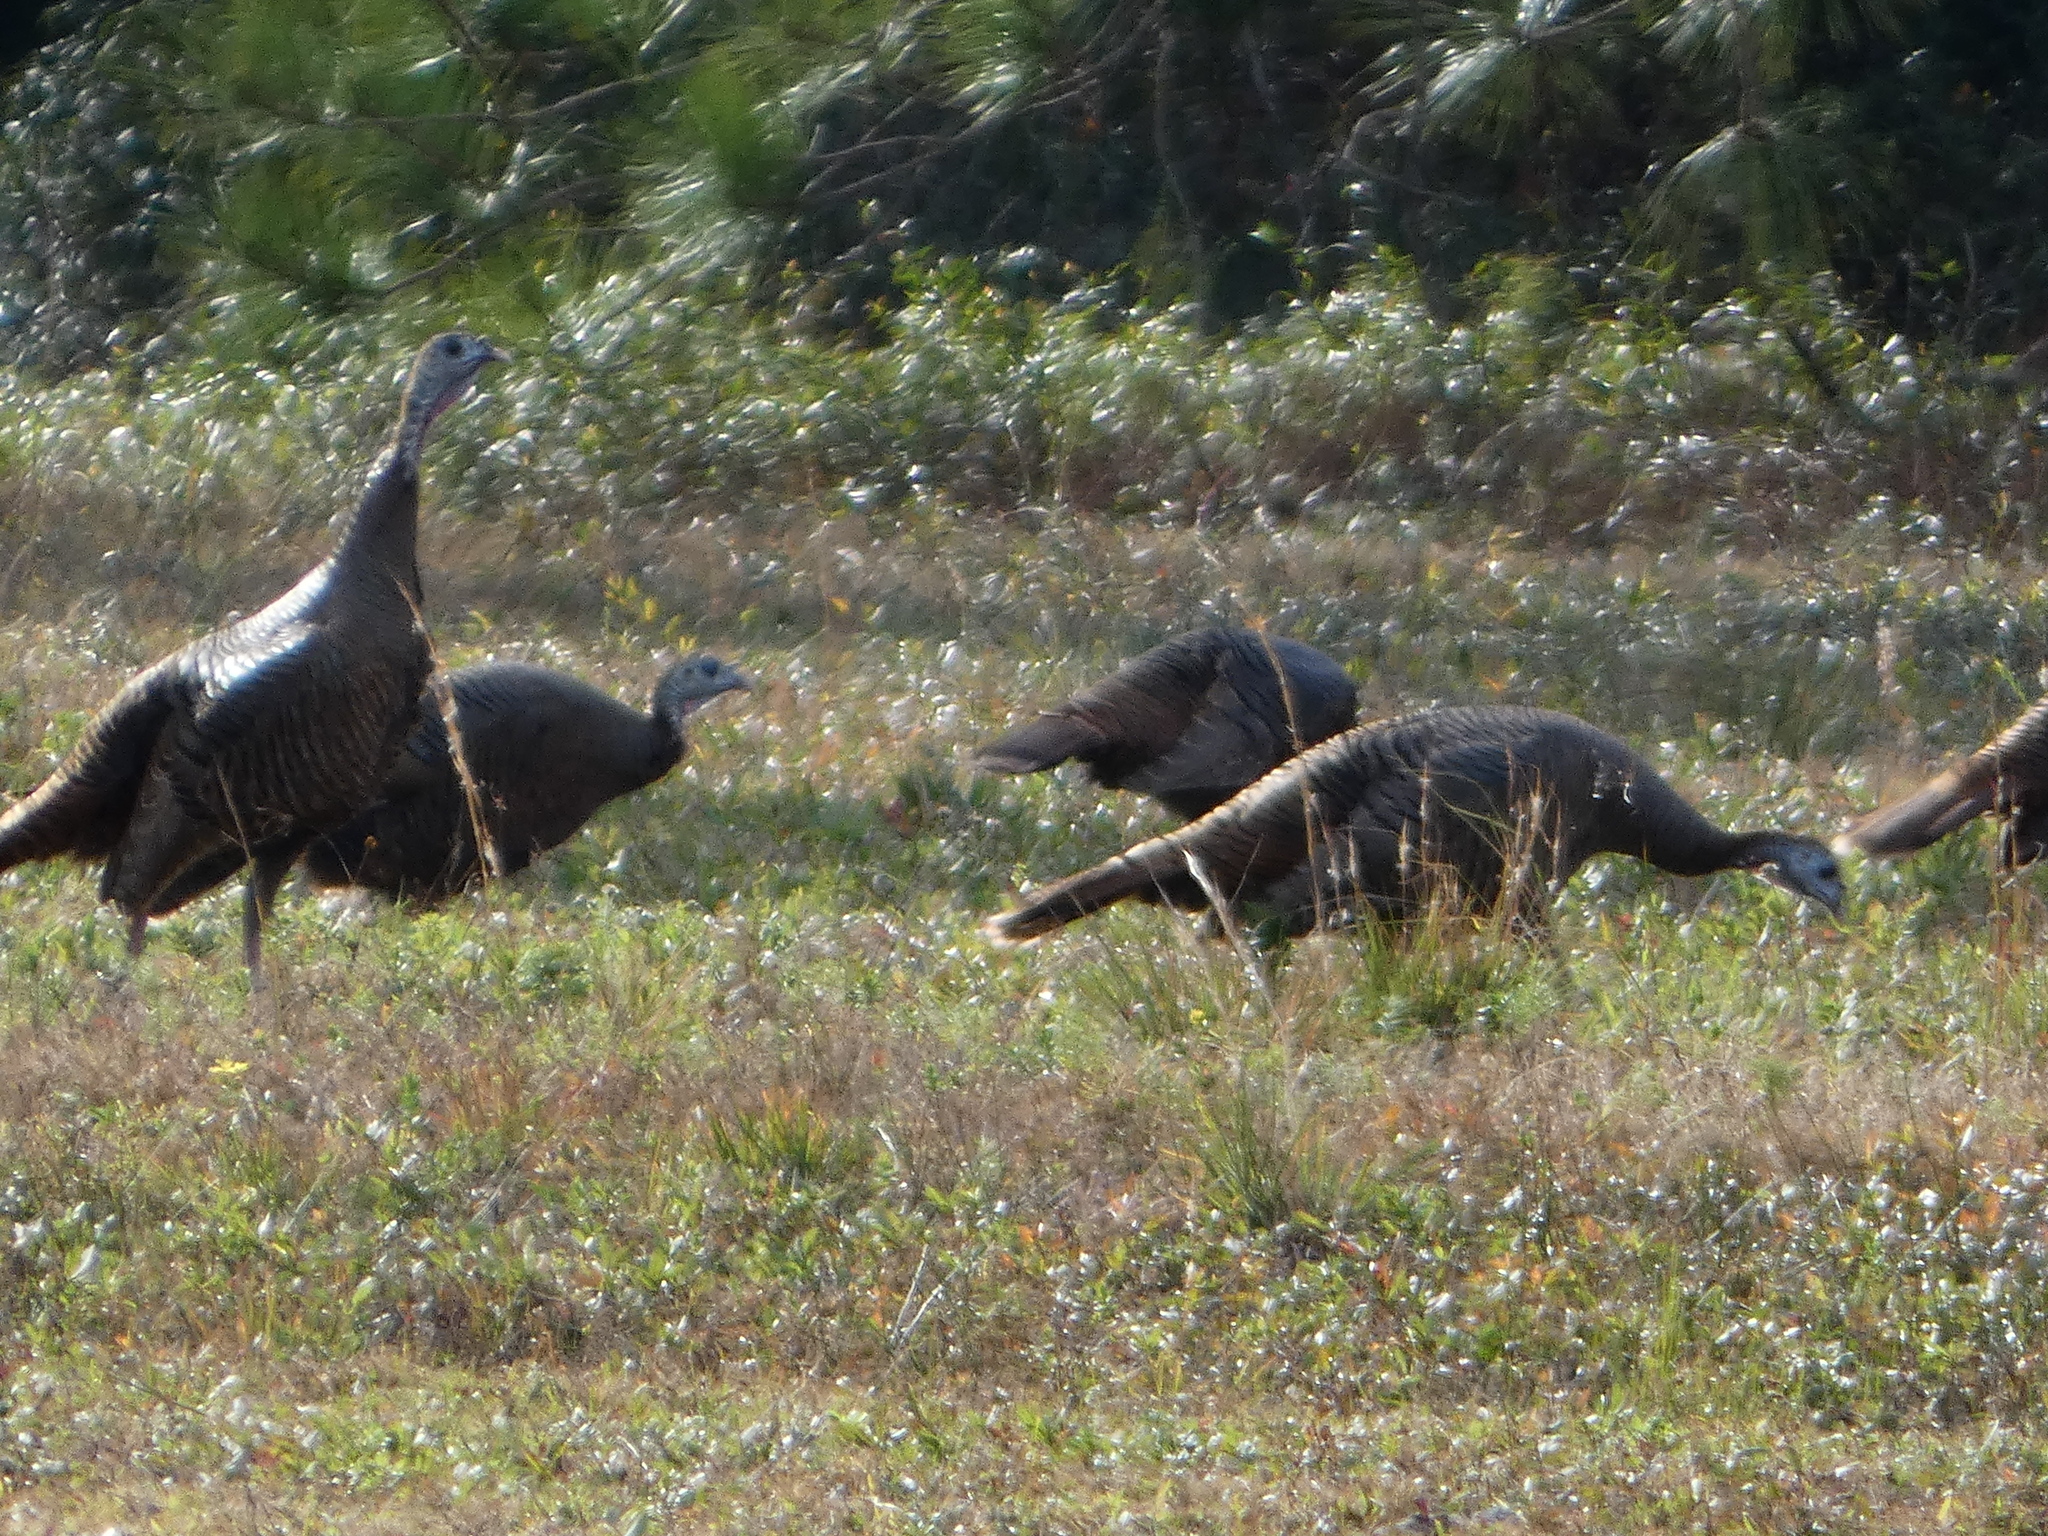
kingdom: Animalia
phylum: Chordata
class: Aves
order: Galliformes
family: Phasianidae
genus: Meleagris
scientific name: Meleagris gallopavo
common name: Wild turkey
